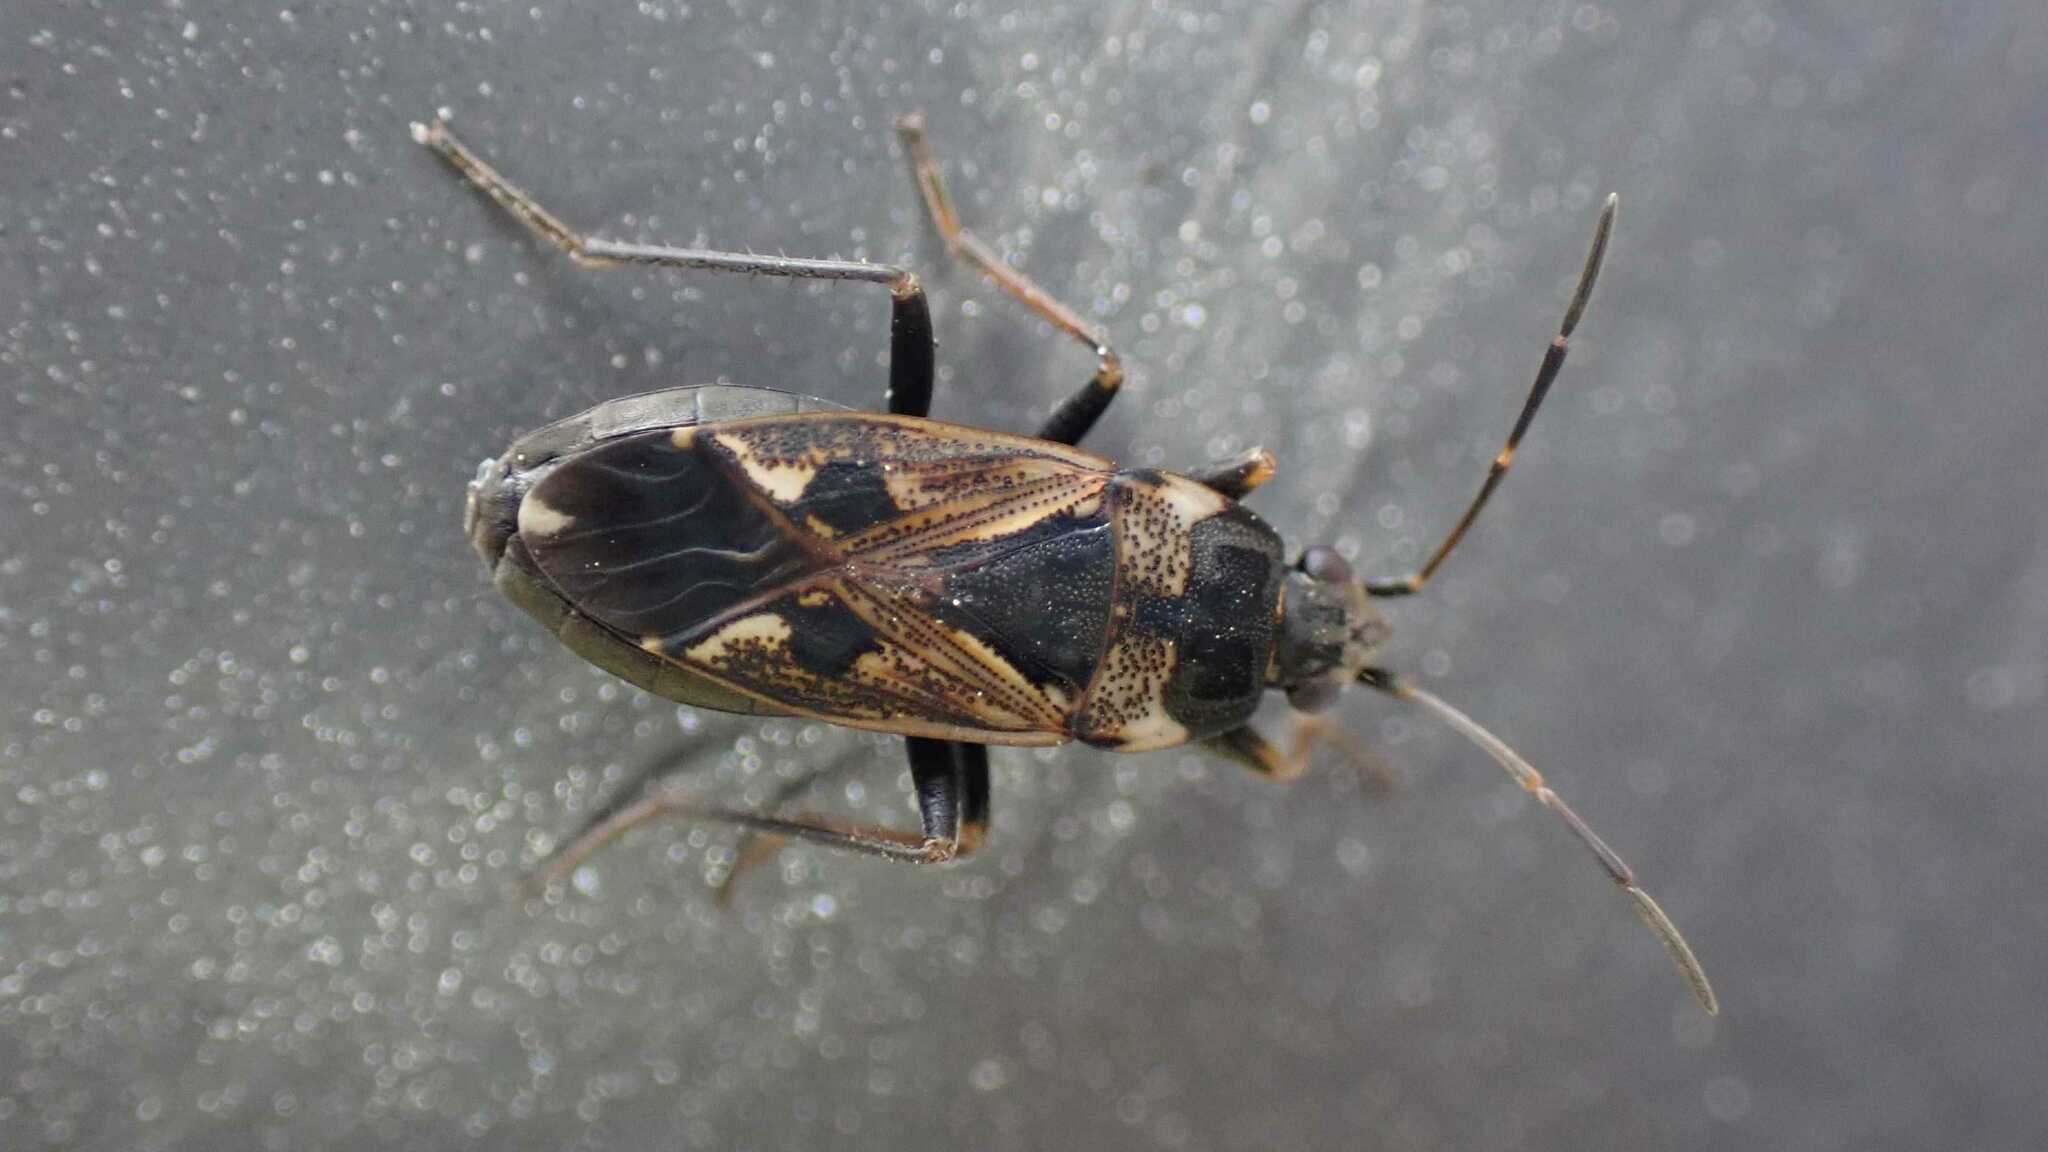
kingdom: Animalia
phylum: Arthropoda
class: Insecta
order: Hemiptera
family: Rhyparochromidae
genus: Rhyparochromus
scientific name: Rhyparochromus vulgaris
